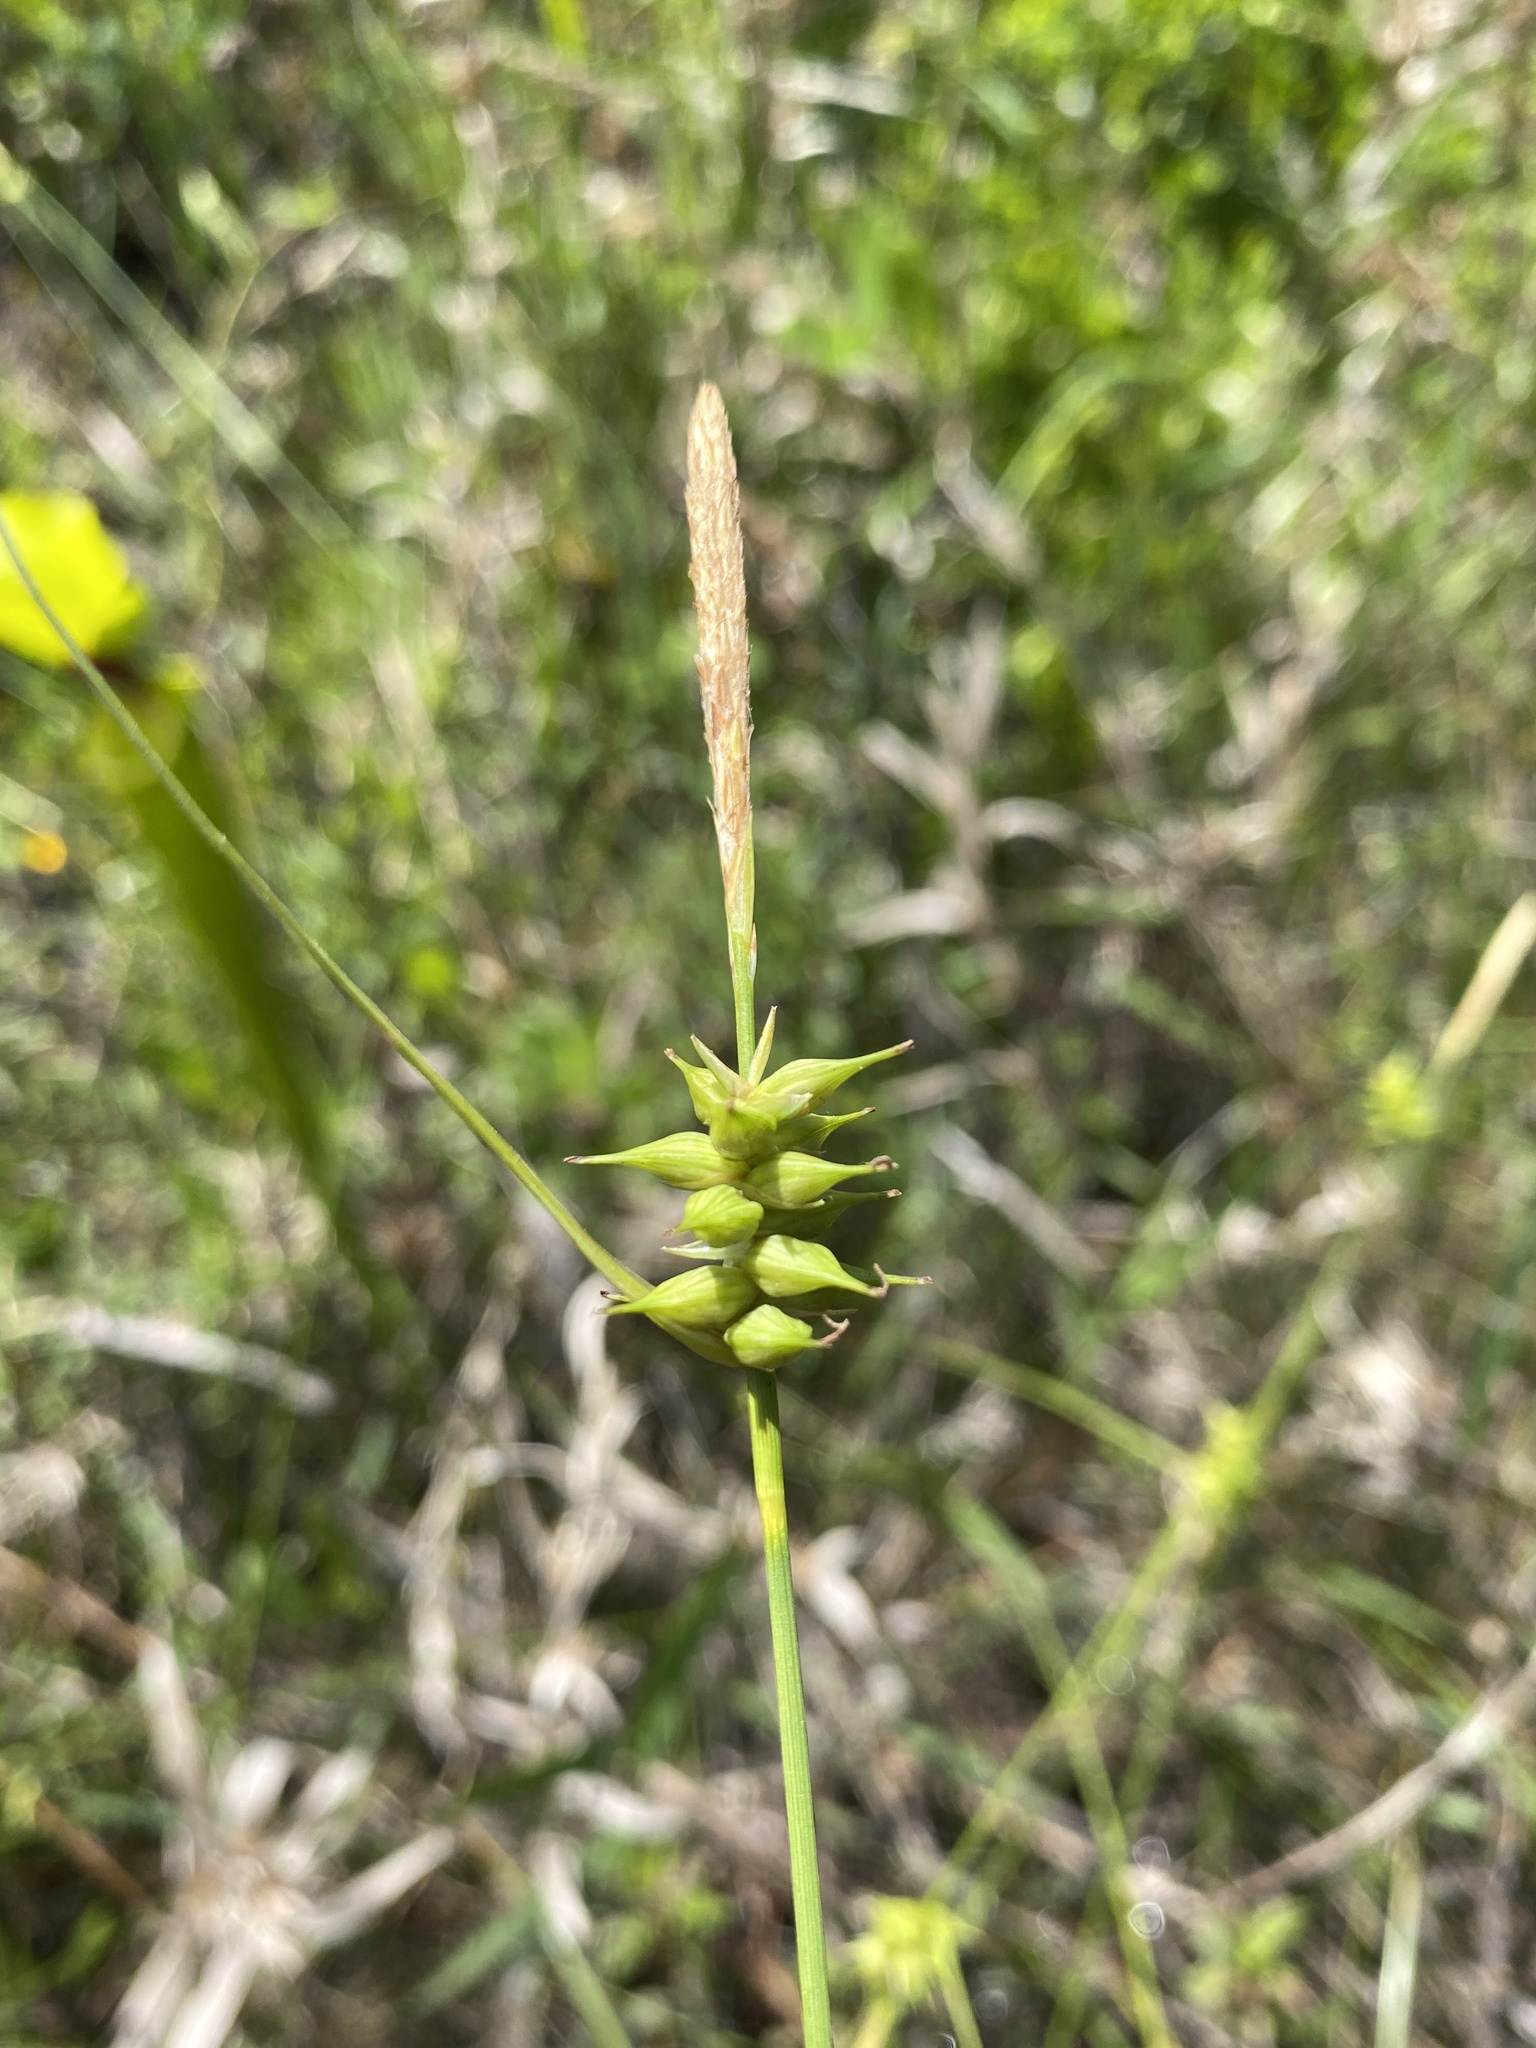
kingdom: Plantae
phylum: Tracheophyta
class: Liliopsida
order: Poales
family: Cyperaceae
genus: Carex
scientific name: Carex turgescens
